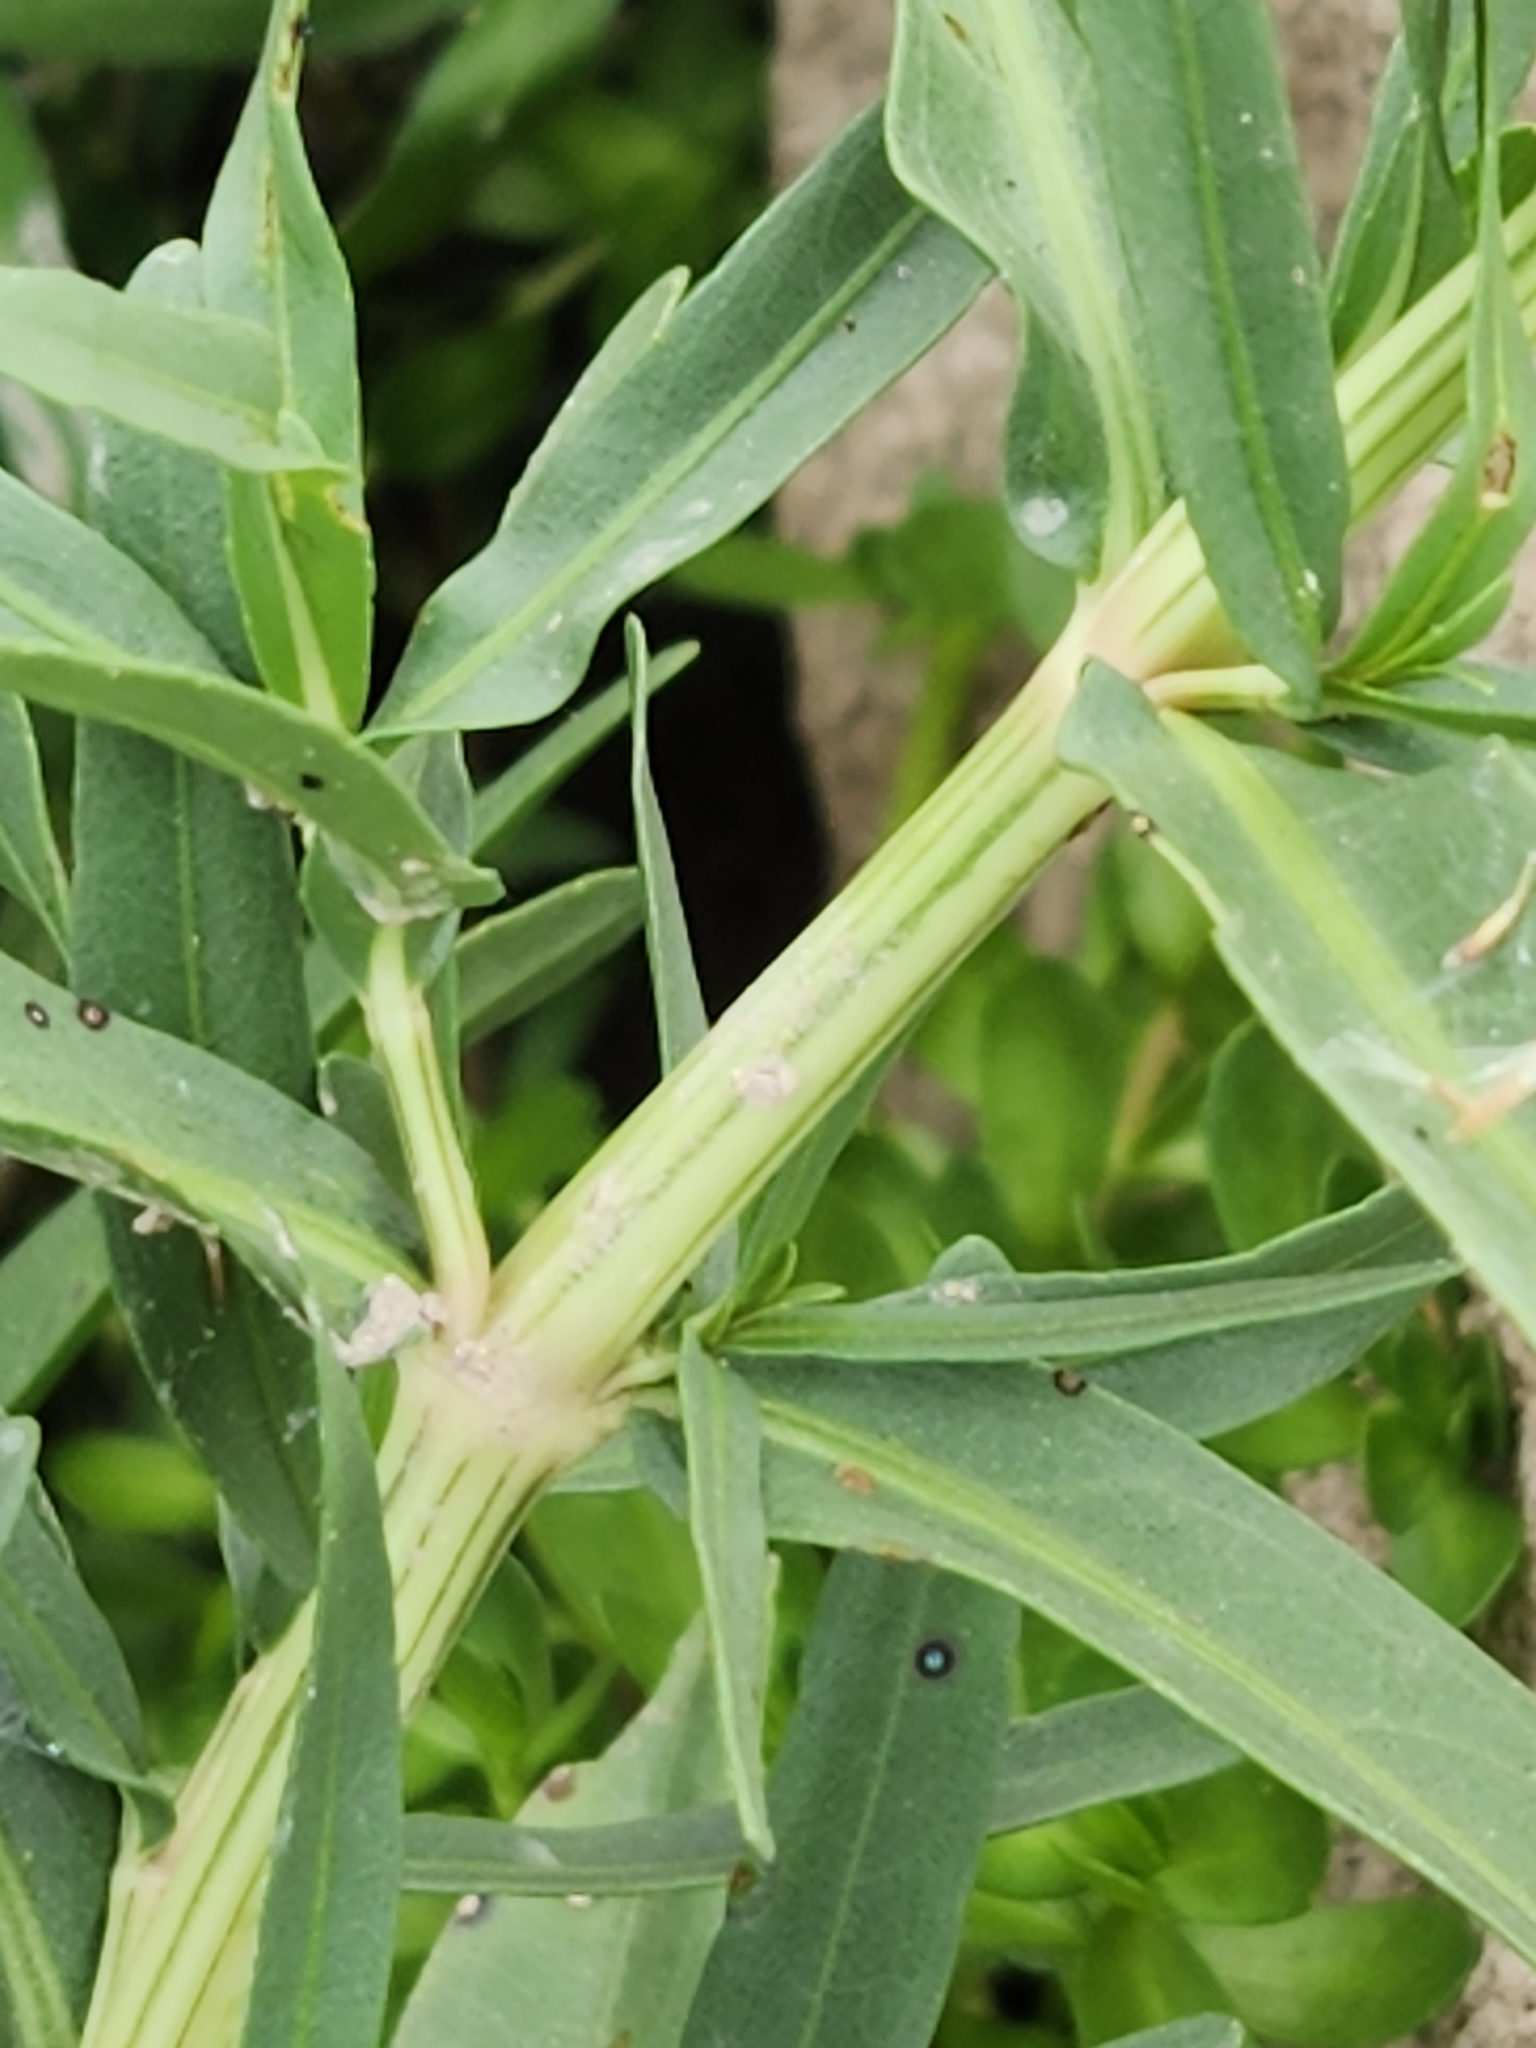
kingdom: Plantae
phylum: Tracheophyta
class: Magnoliopsida
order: Lamiales
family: Acanthaceae
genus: Dianthera
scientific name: Dianthera americana
